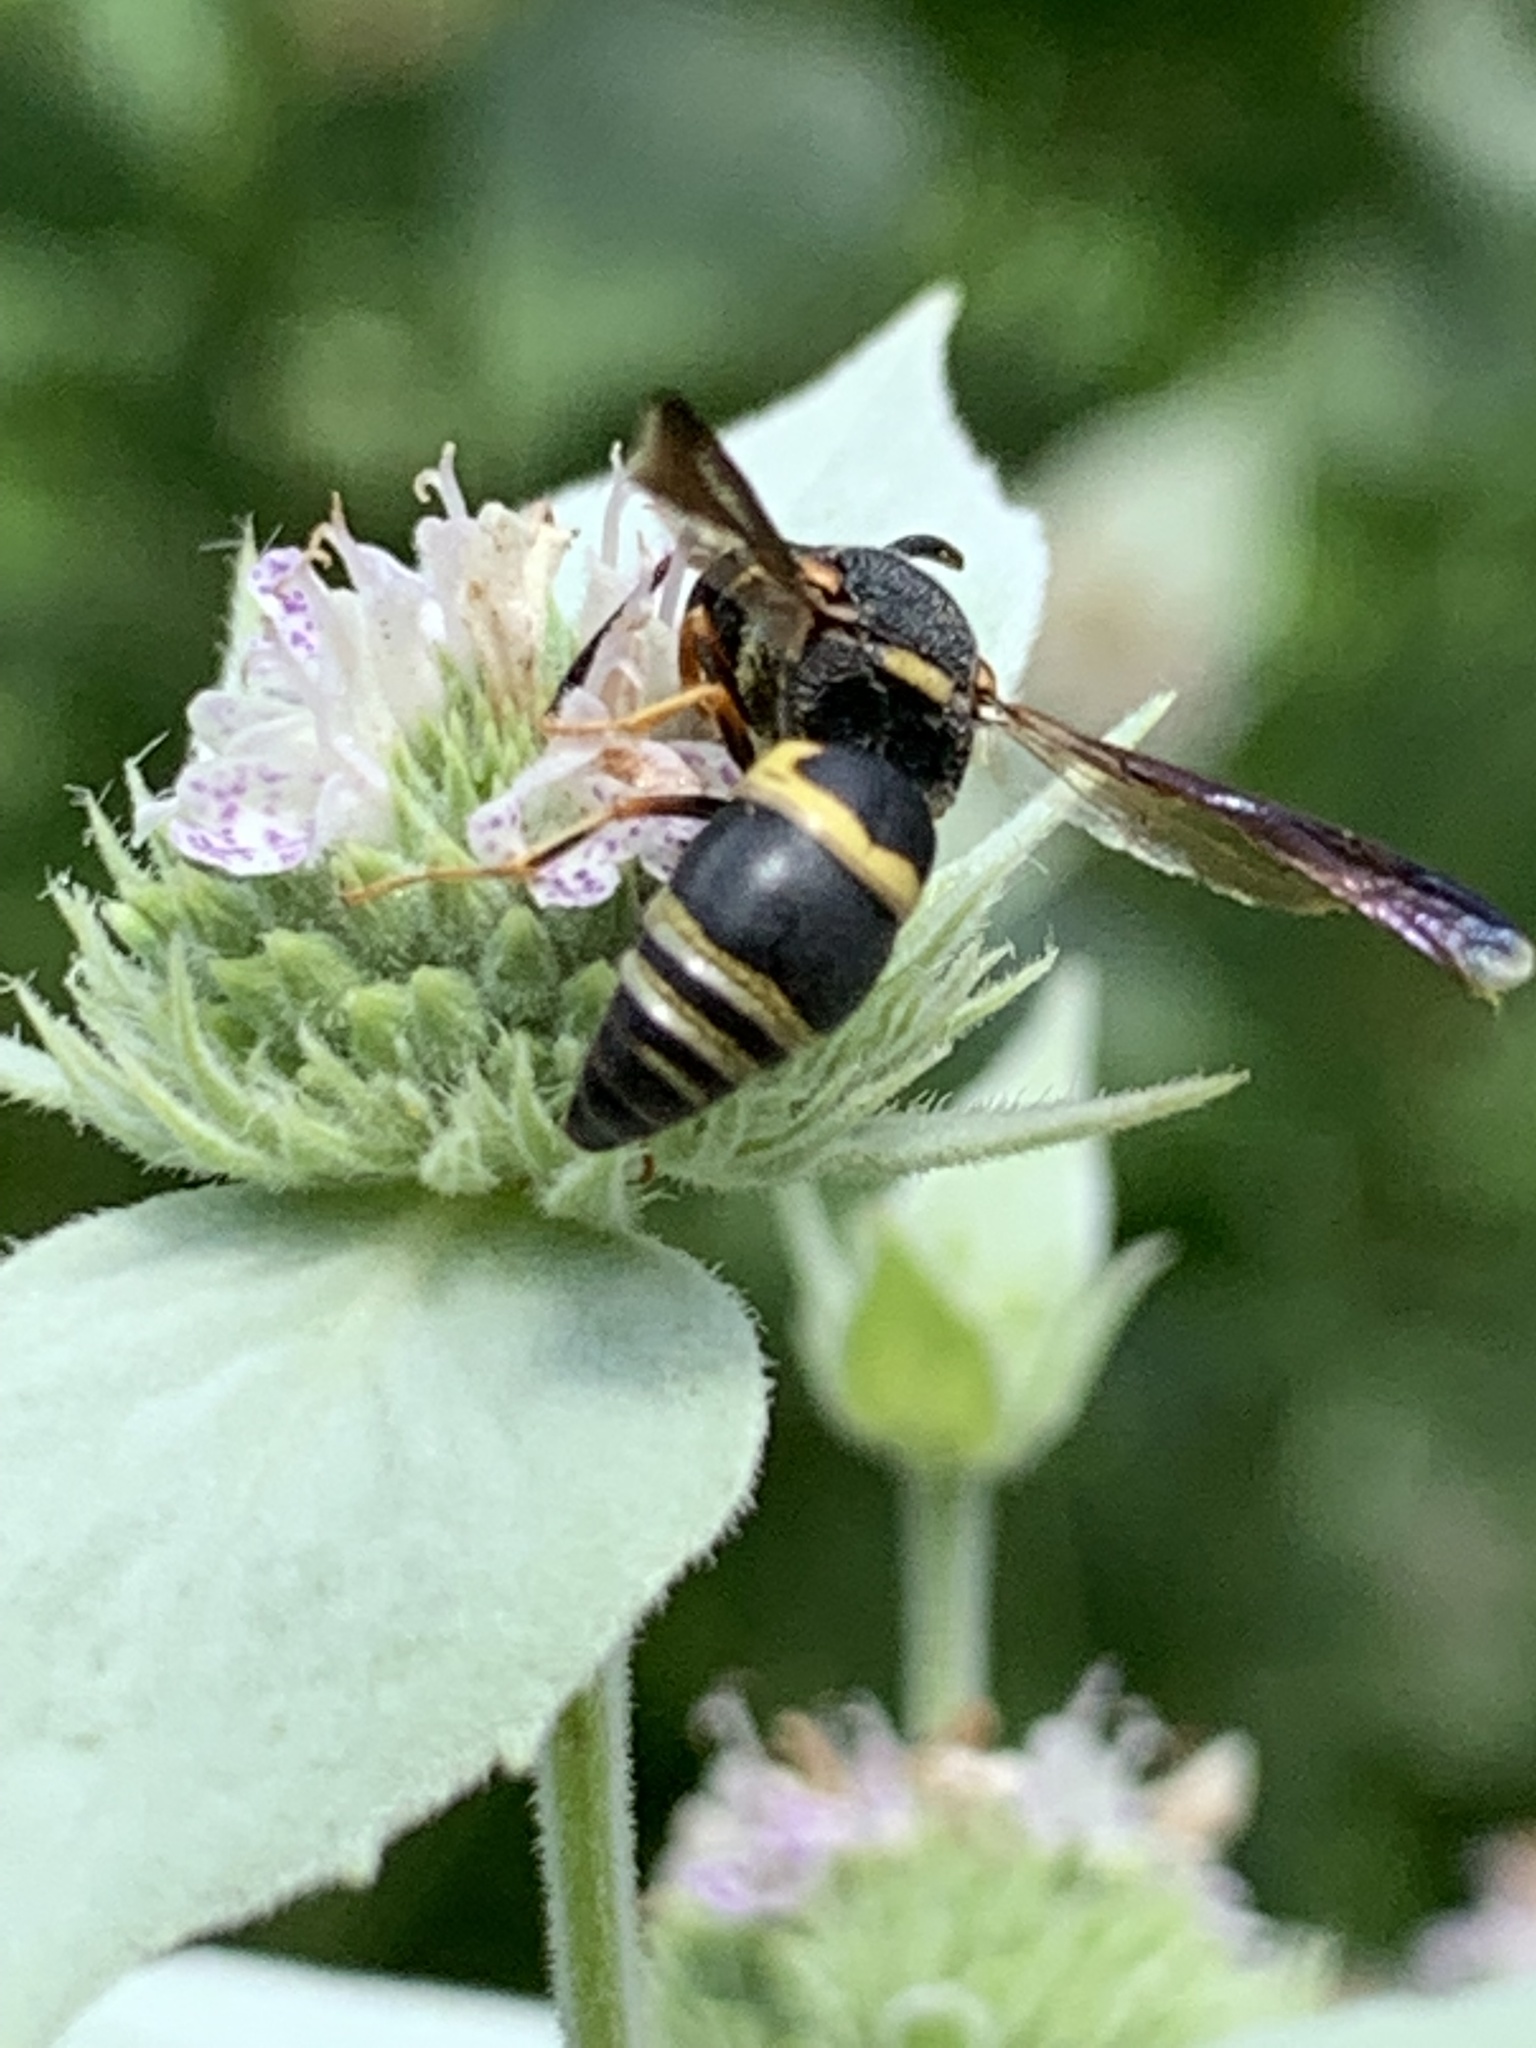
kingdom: Animalia
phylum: Arthropoda
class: Insecta
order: Hymenoptera
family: Eumenidae
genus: Euodynerus
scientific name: Euodynerus hidalgo
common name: Wasp
